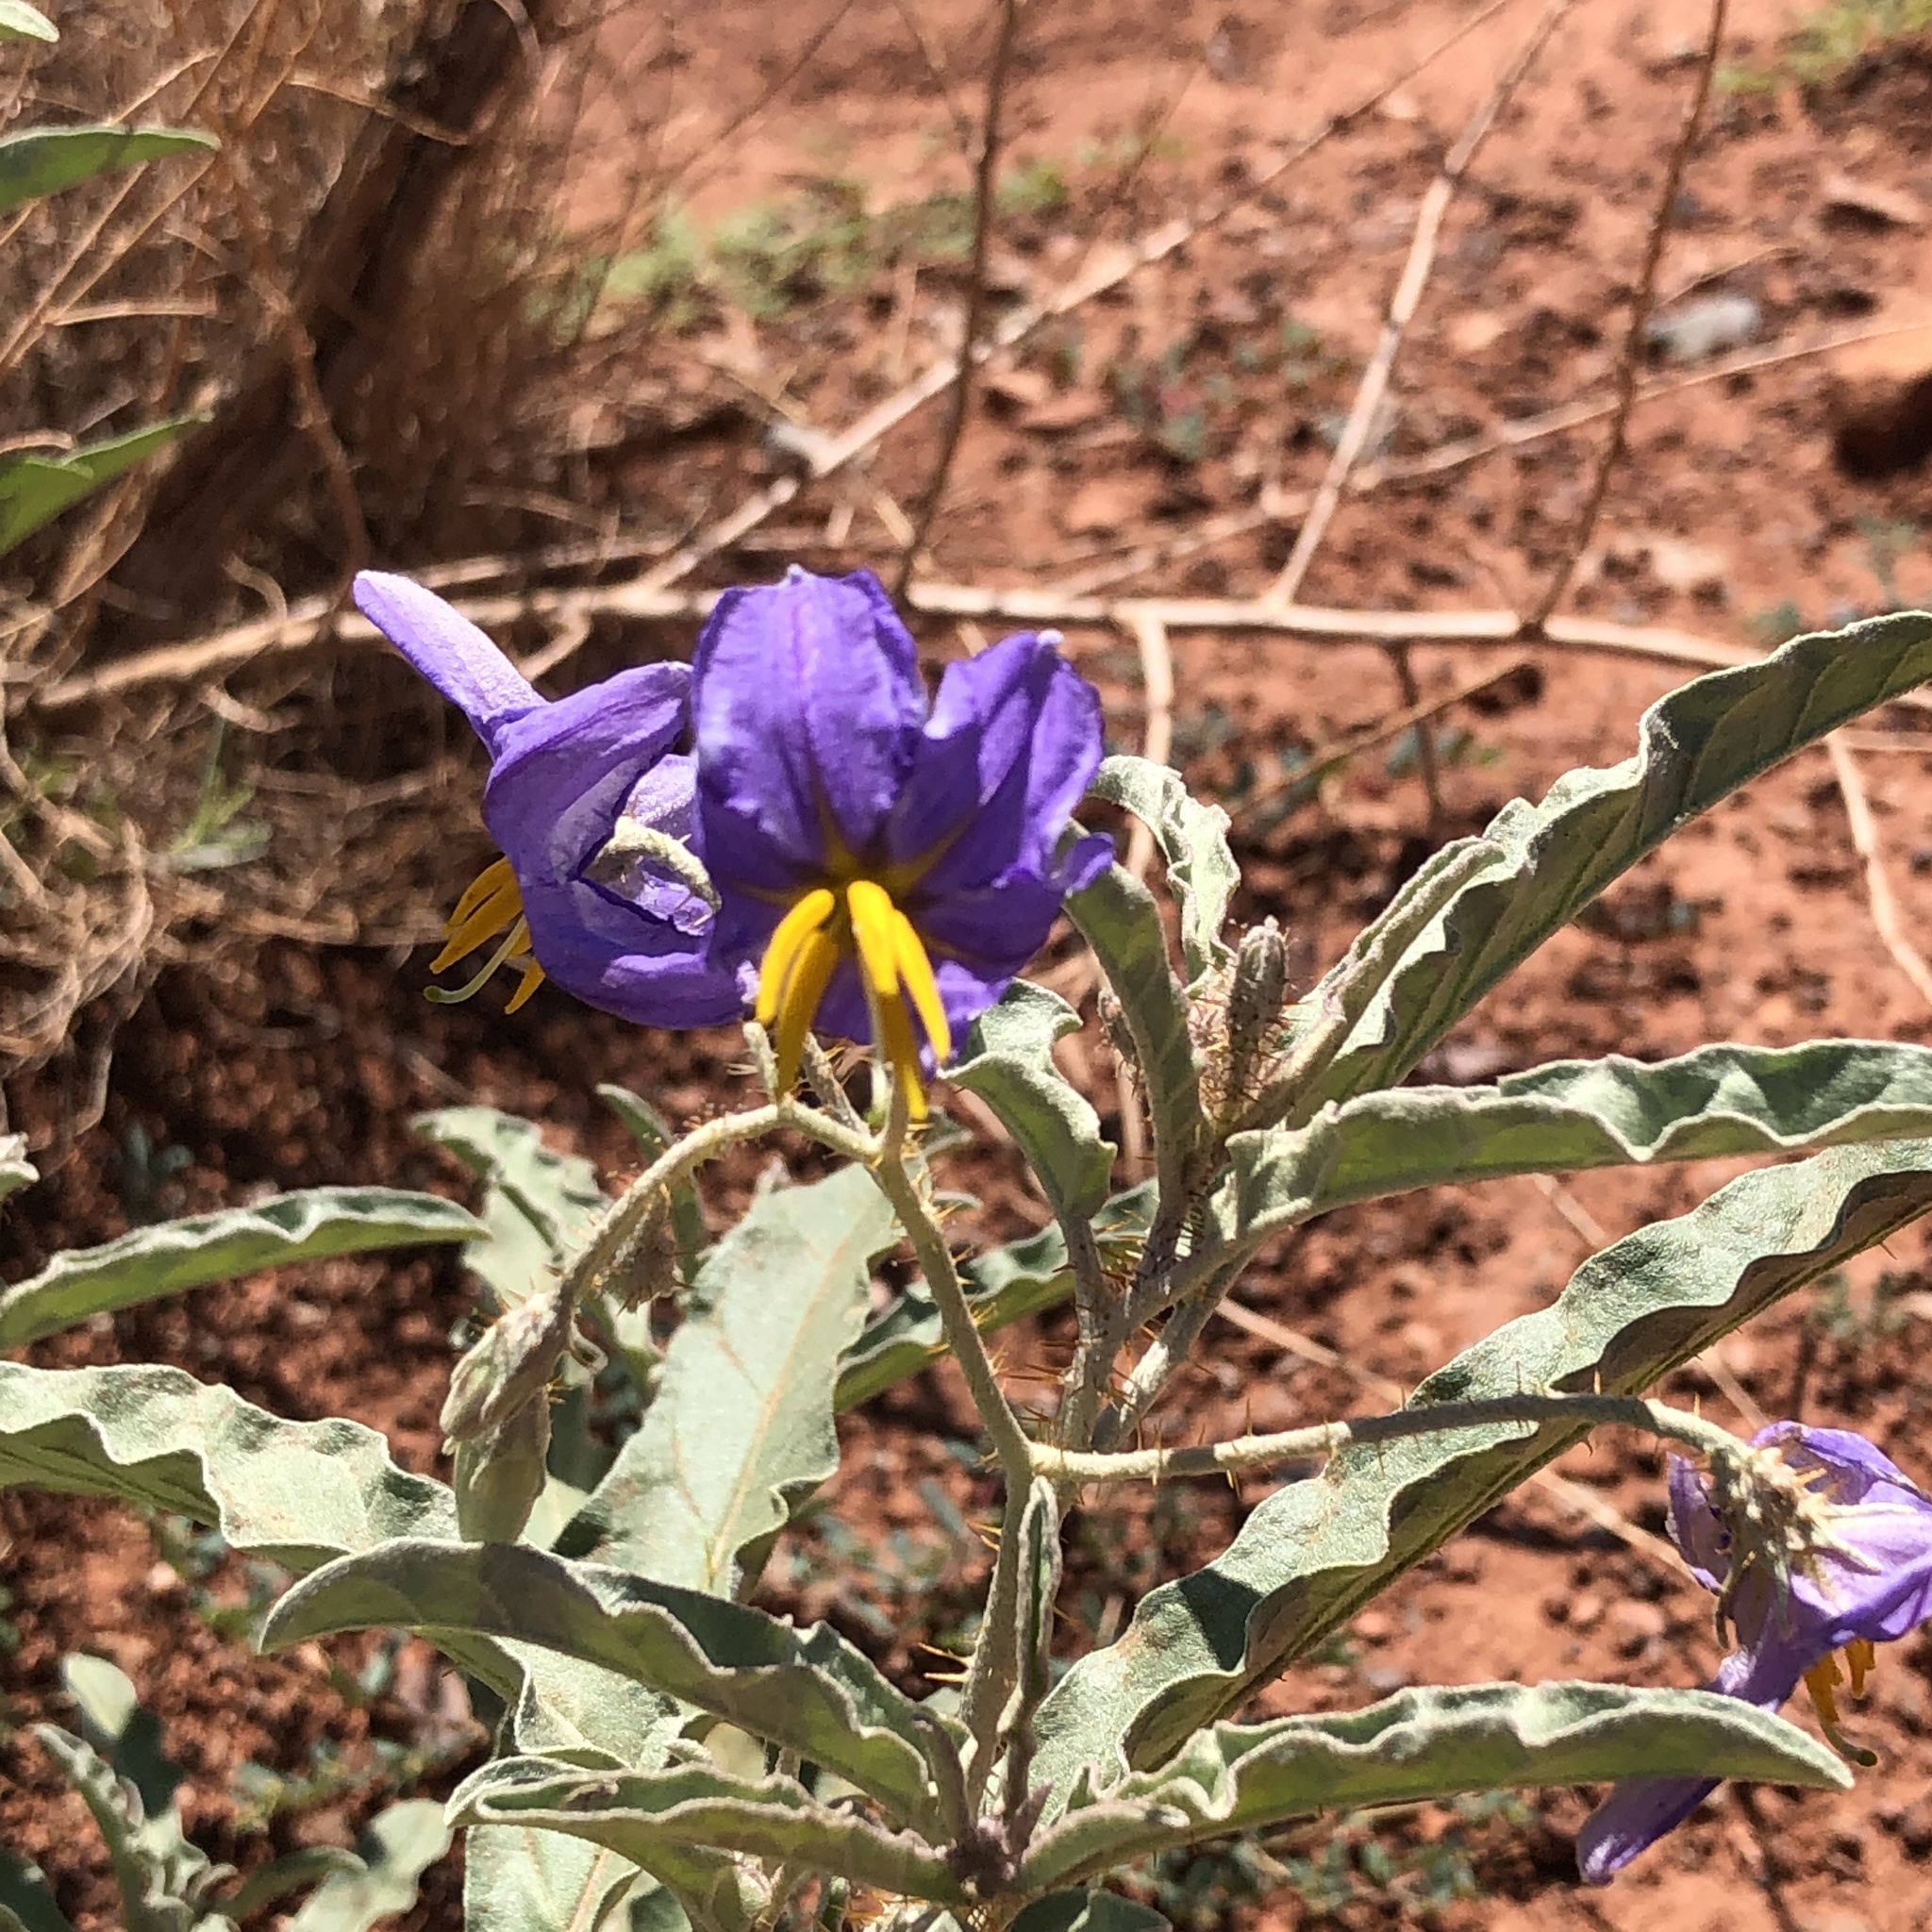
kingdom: Plantae
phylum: Tracheophyta
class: Magnoliopsida
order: Solanales
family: Solanaceae
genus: Solanum
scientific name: Solanum elaeagnifolium
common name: Silverleaf nightshade
